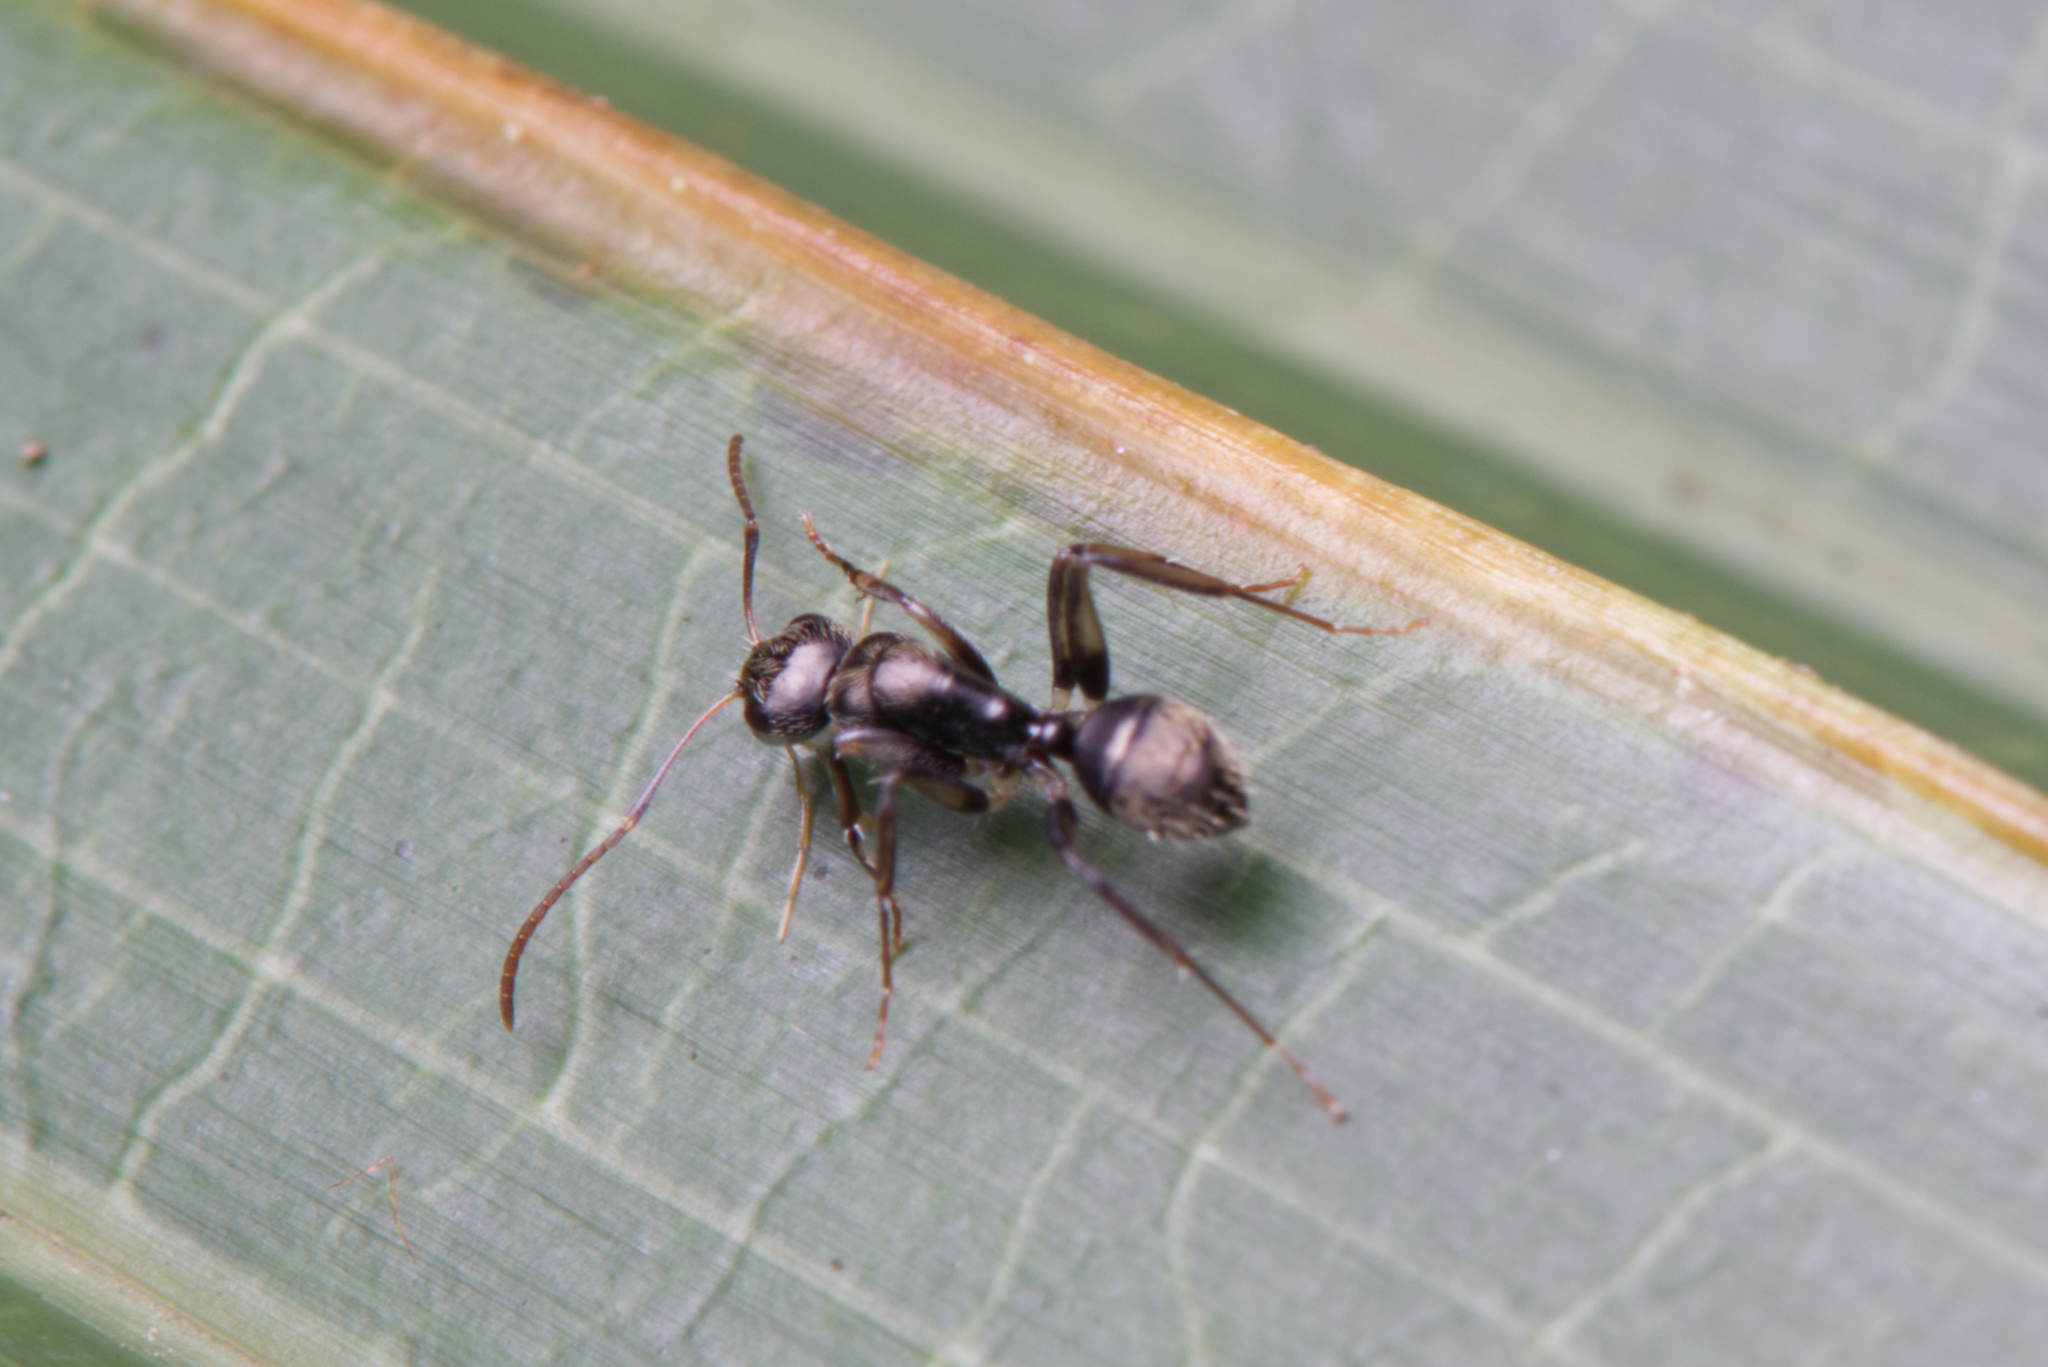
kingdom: Animalia
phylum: Arthropoda
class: Insecta
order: Hymenoptera
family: Formicidae
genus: Camponotus
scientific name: Camponotus froggatti
